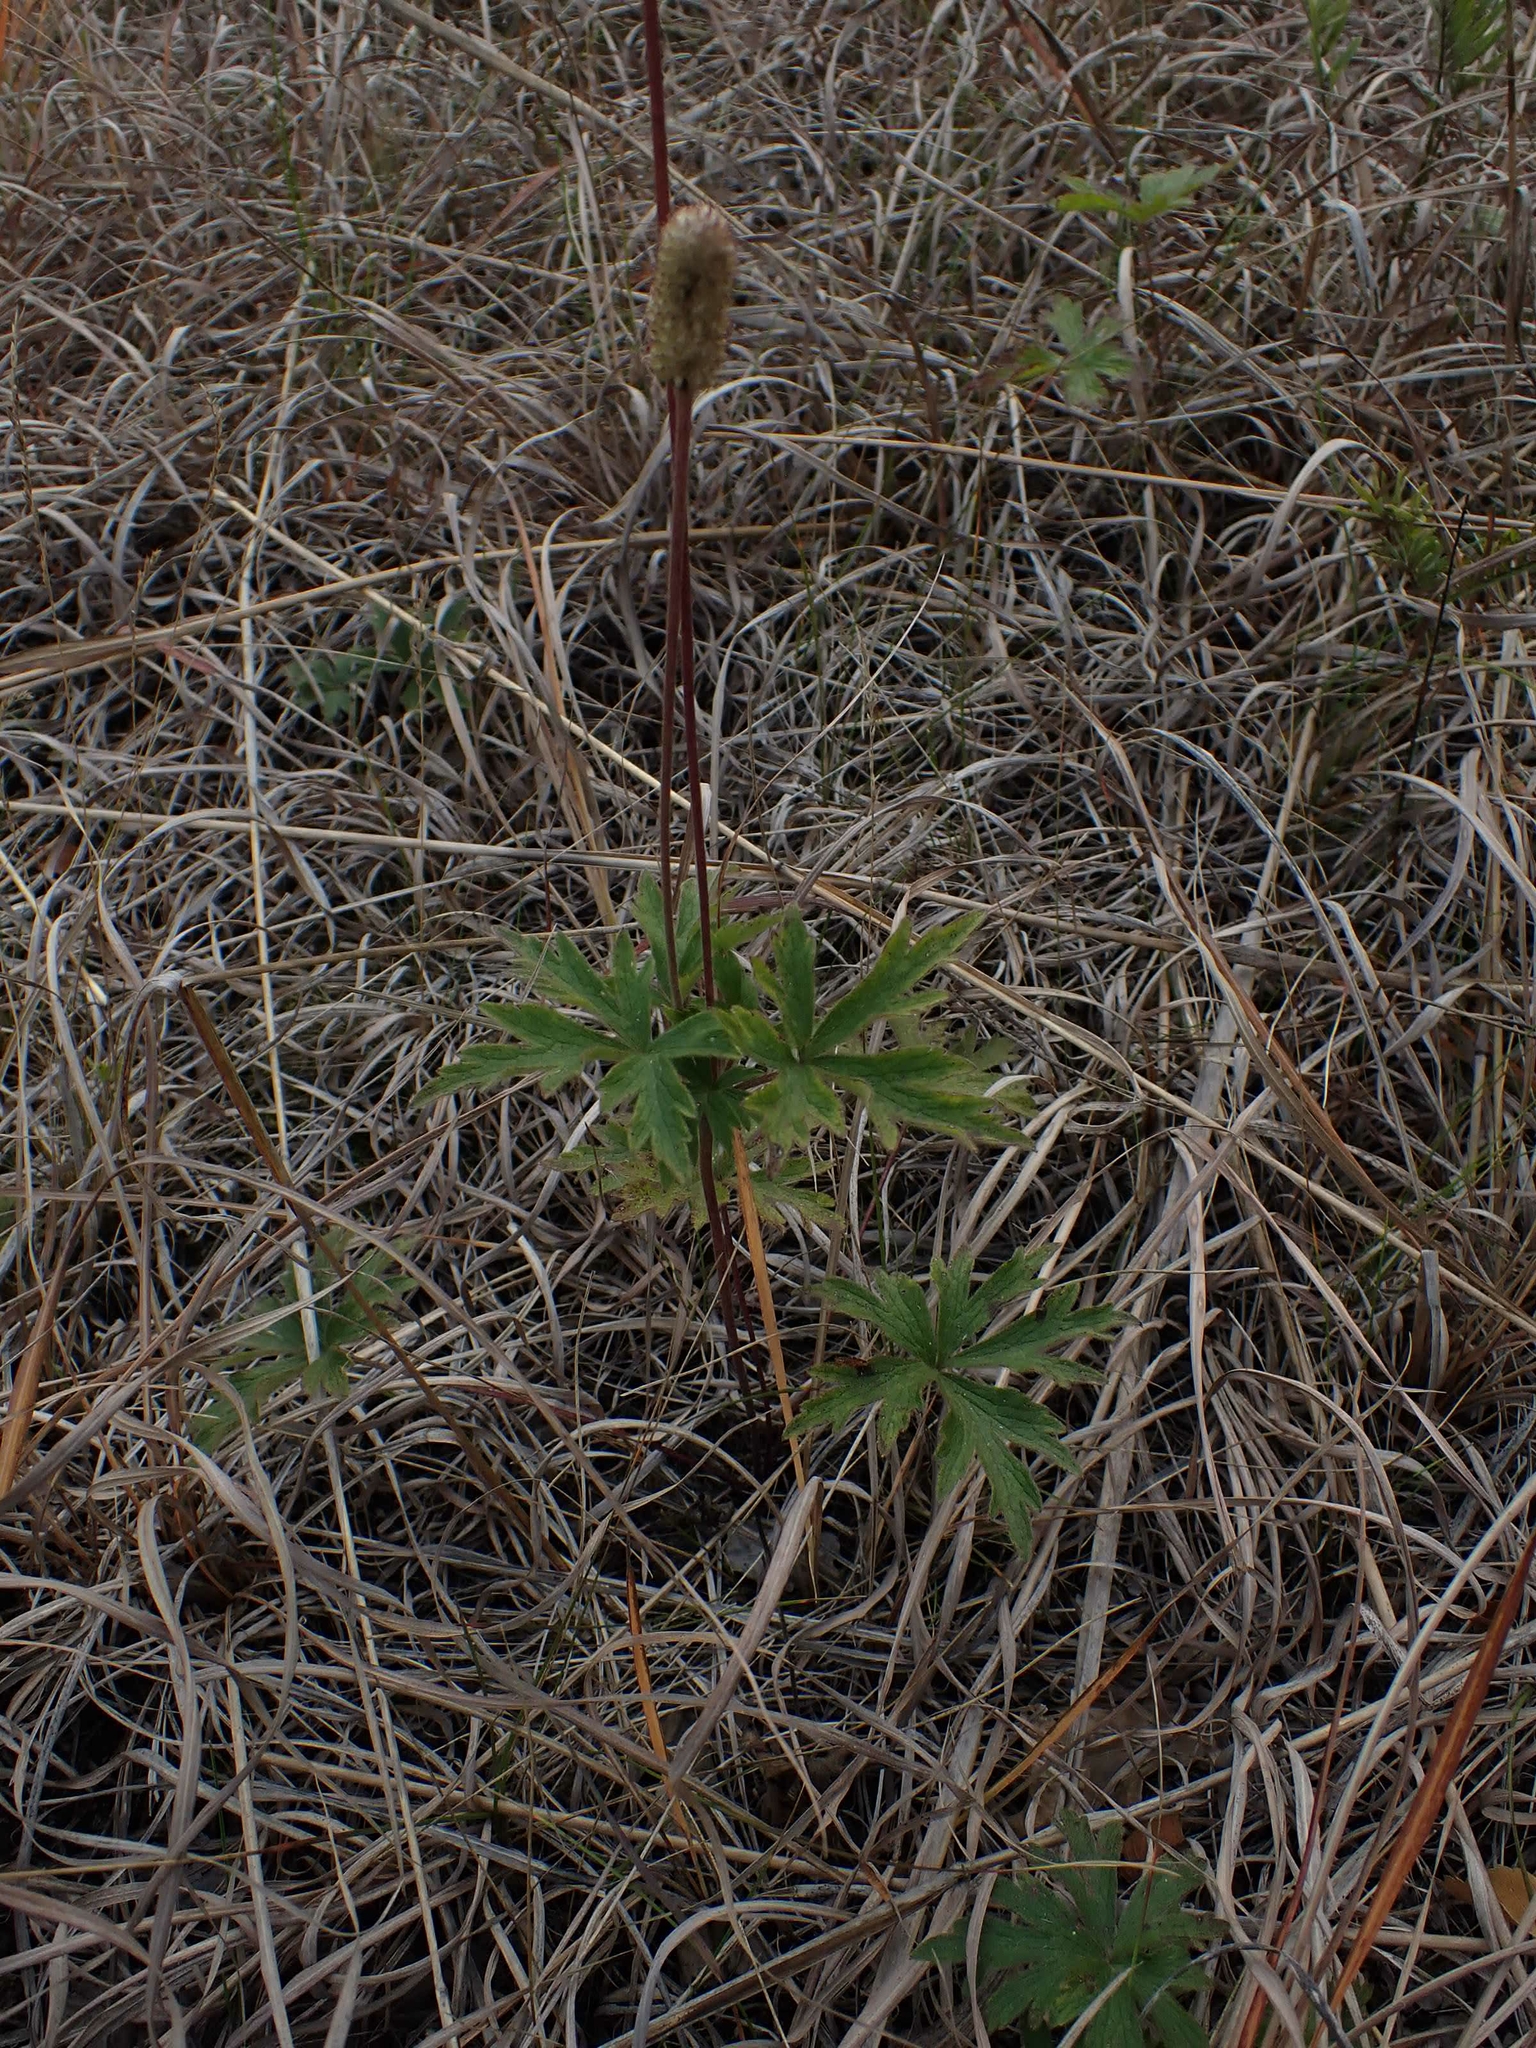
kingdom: Plantae
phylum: Tracheophyta
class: Magnoliopsida
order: Ranunculales
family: Ranunculaceae
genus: Anemone
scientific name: Anemone cylindrica
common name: Candle anemone
